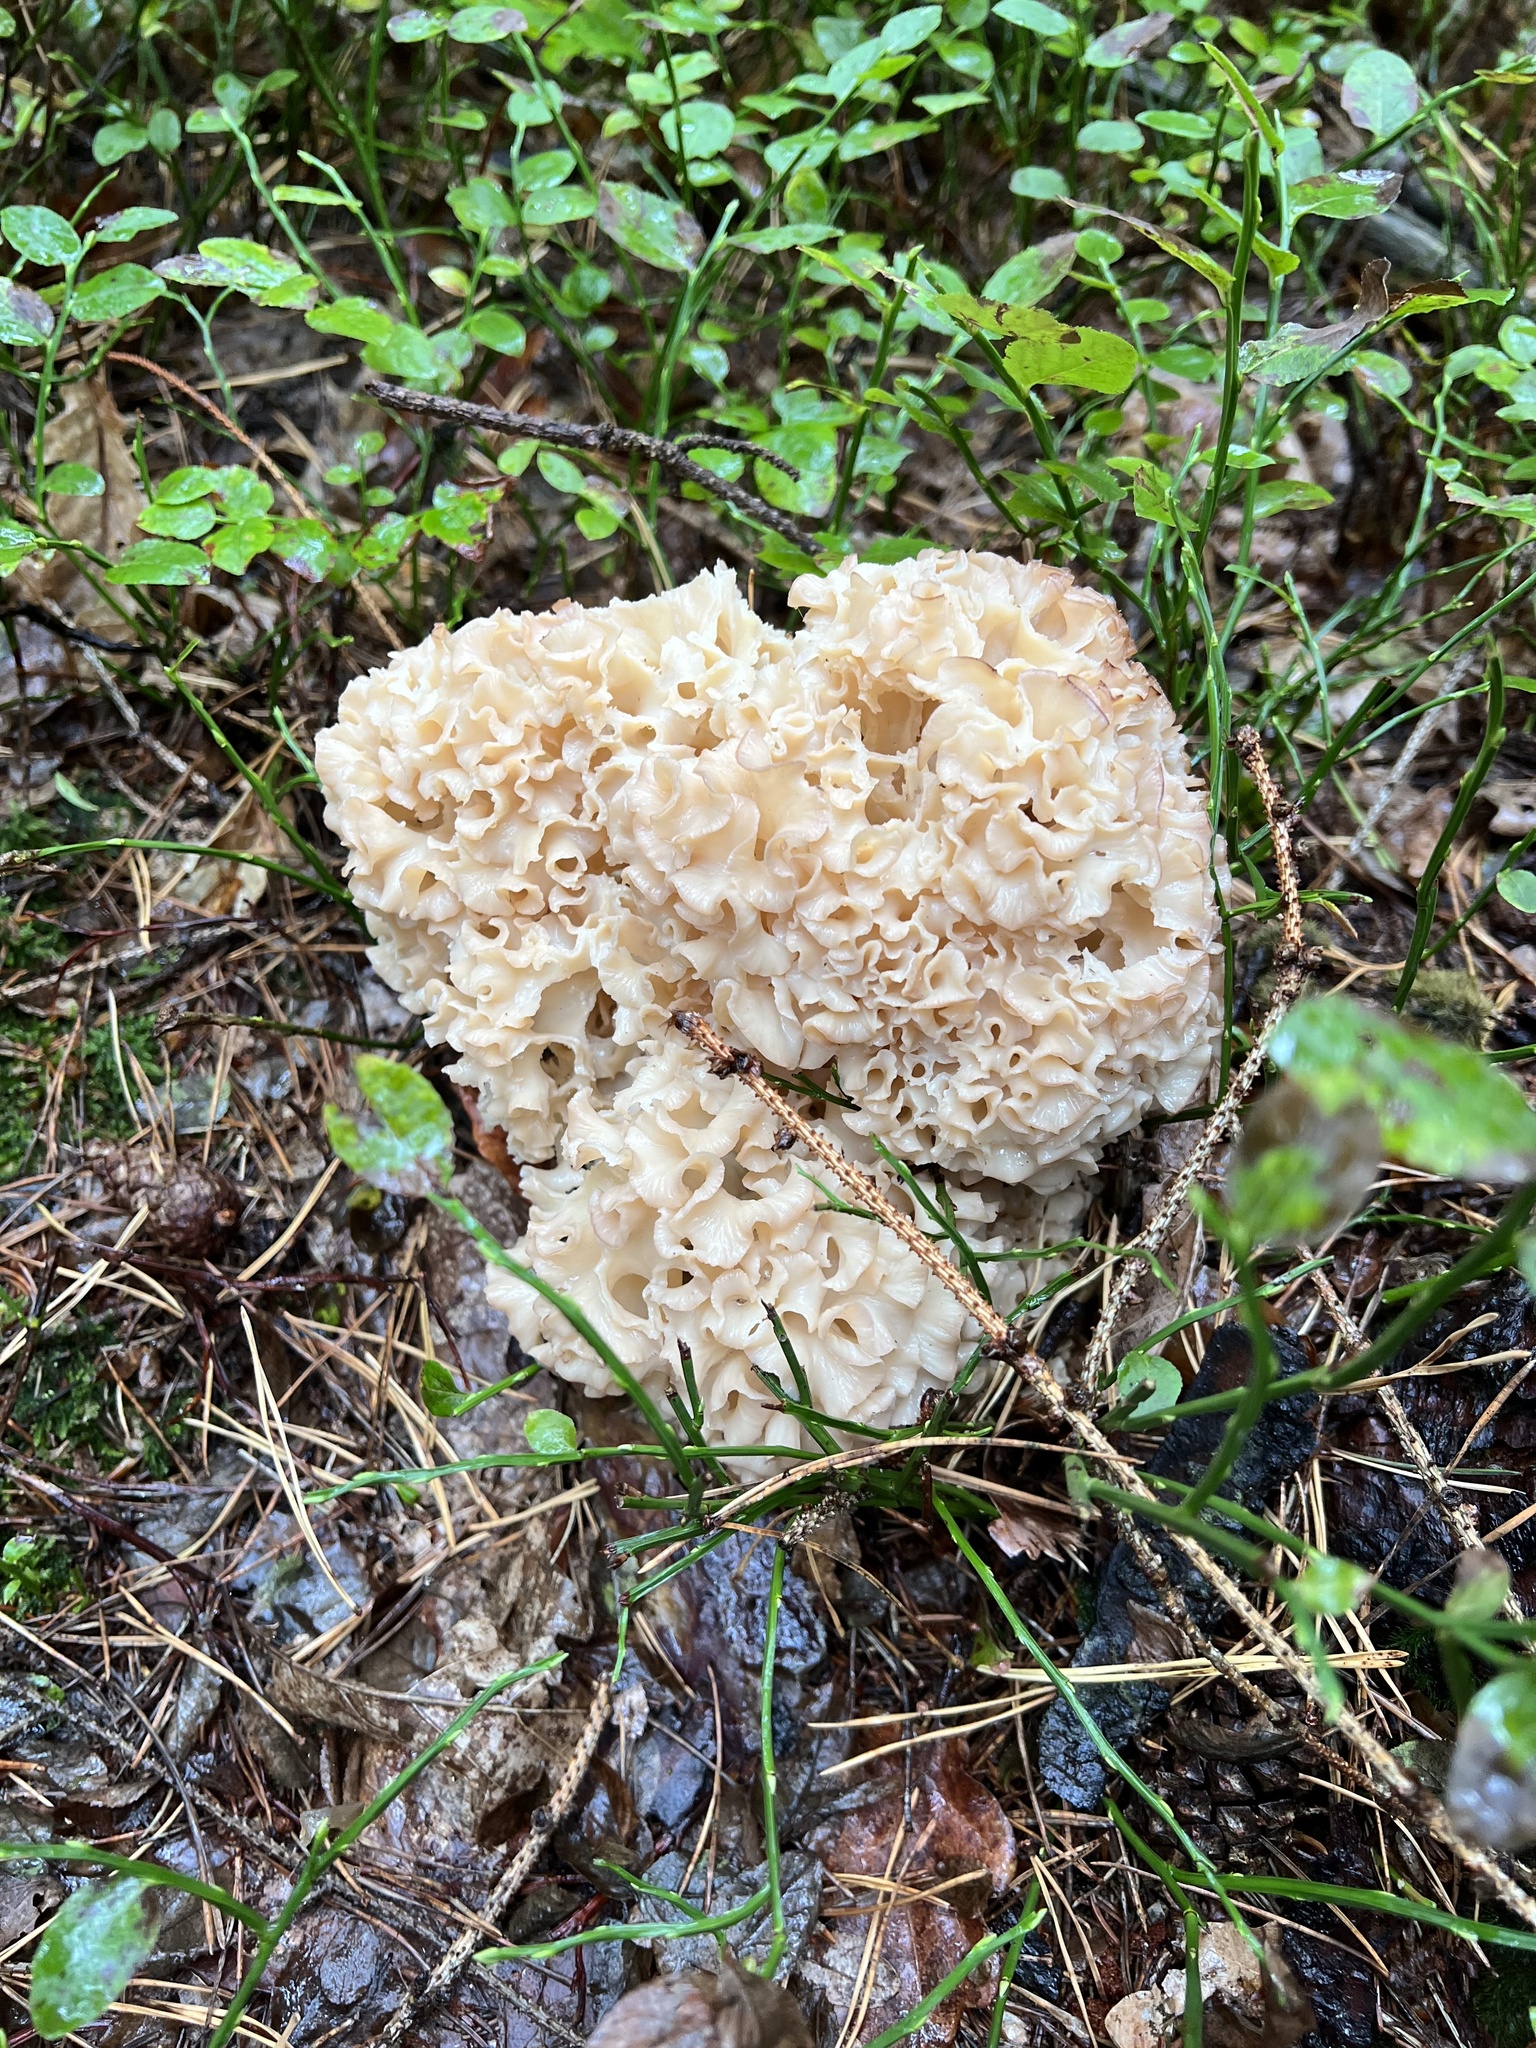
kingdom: Fungi
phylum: Basidiomycota
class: Agaricomycetes
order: Polyporales
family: Sparassidaceae
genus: Sparassis
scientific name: Sparassis crispa
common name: Brain fungus
